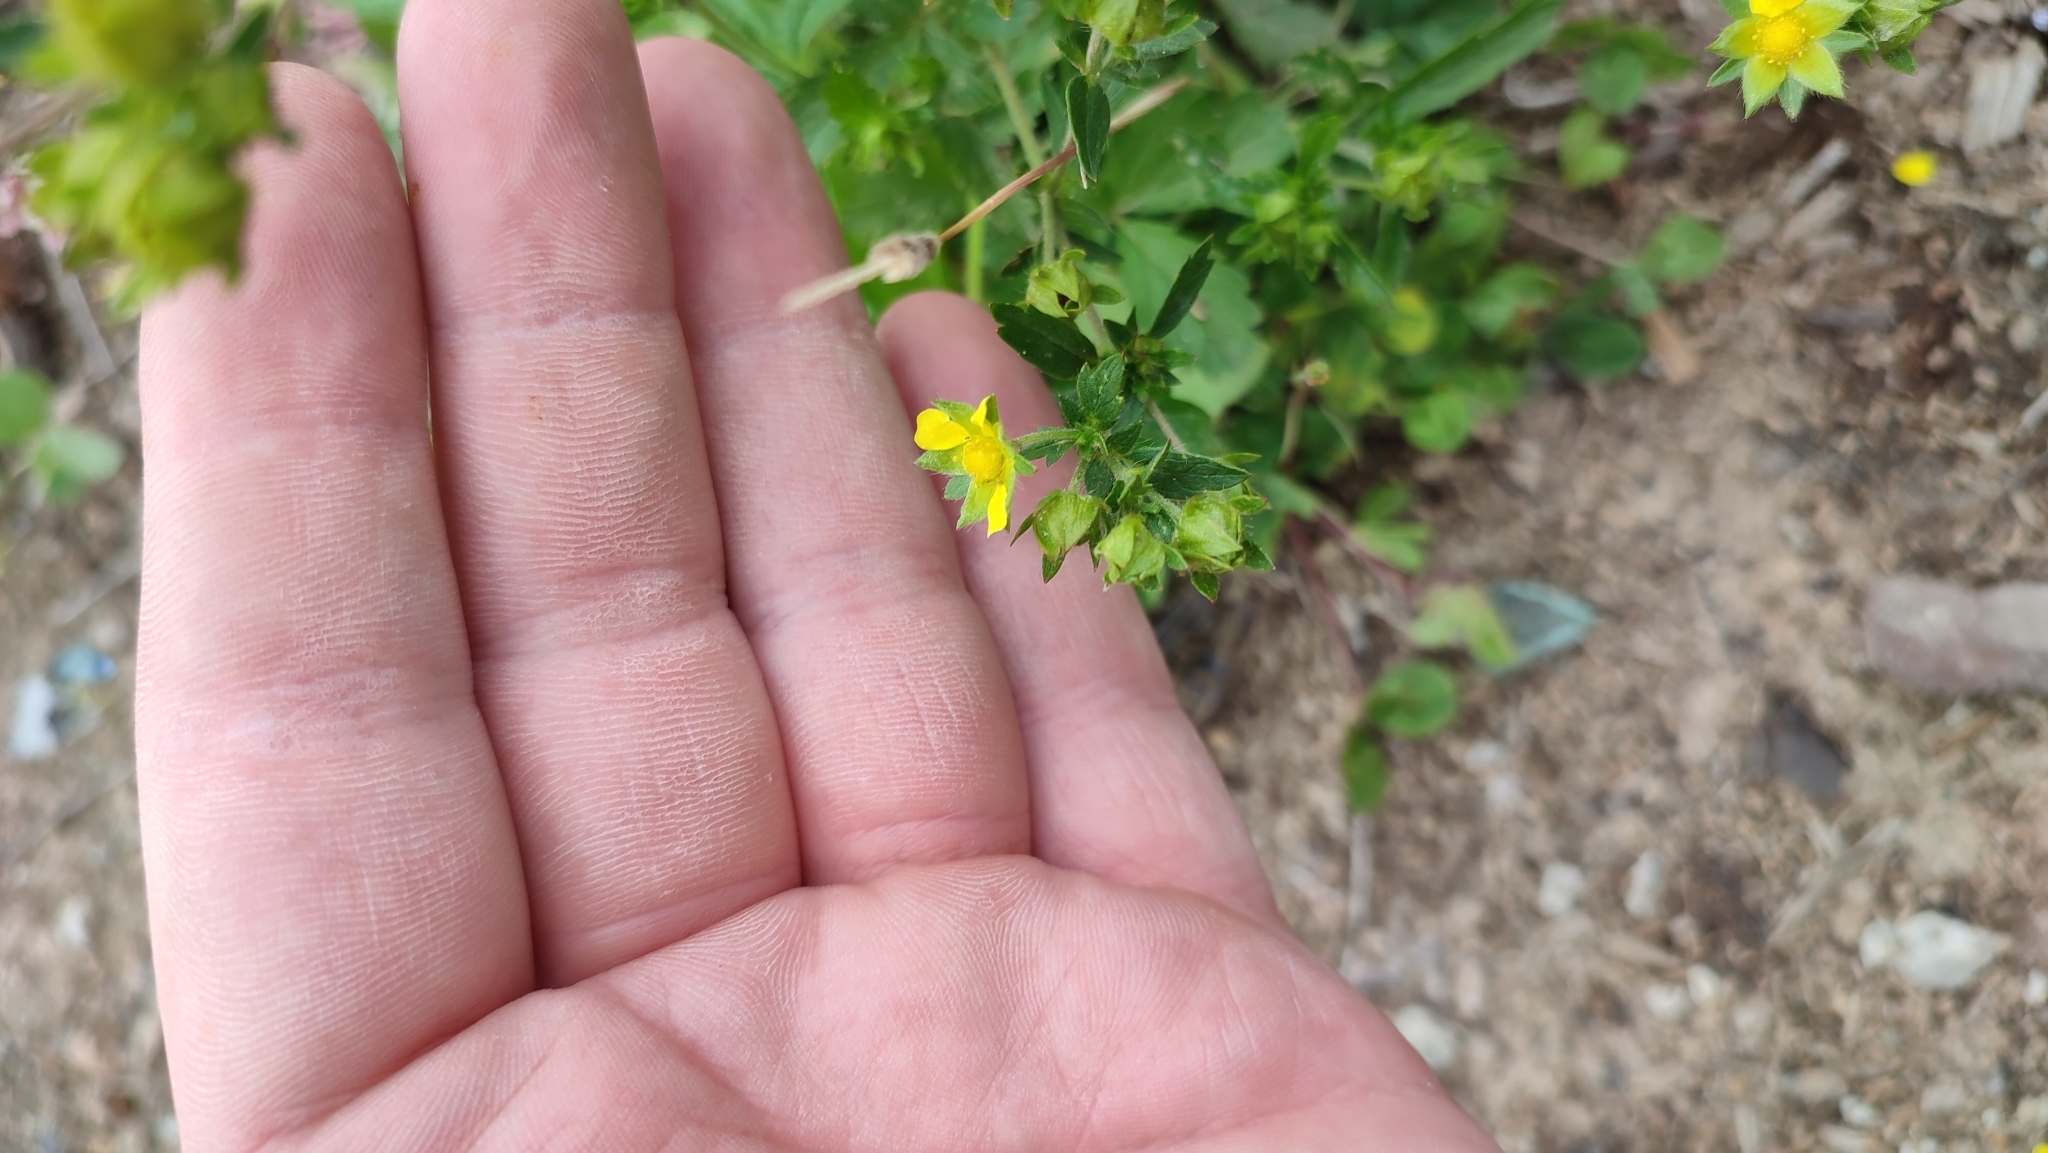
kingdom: Plantae
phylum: Tracheophyta
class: Magnoliopsida
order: Rosales
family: Rosaceae
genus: Potentilla
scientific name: Potentilla norvegica
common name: Ternate-leaved cinquefoil
